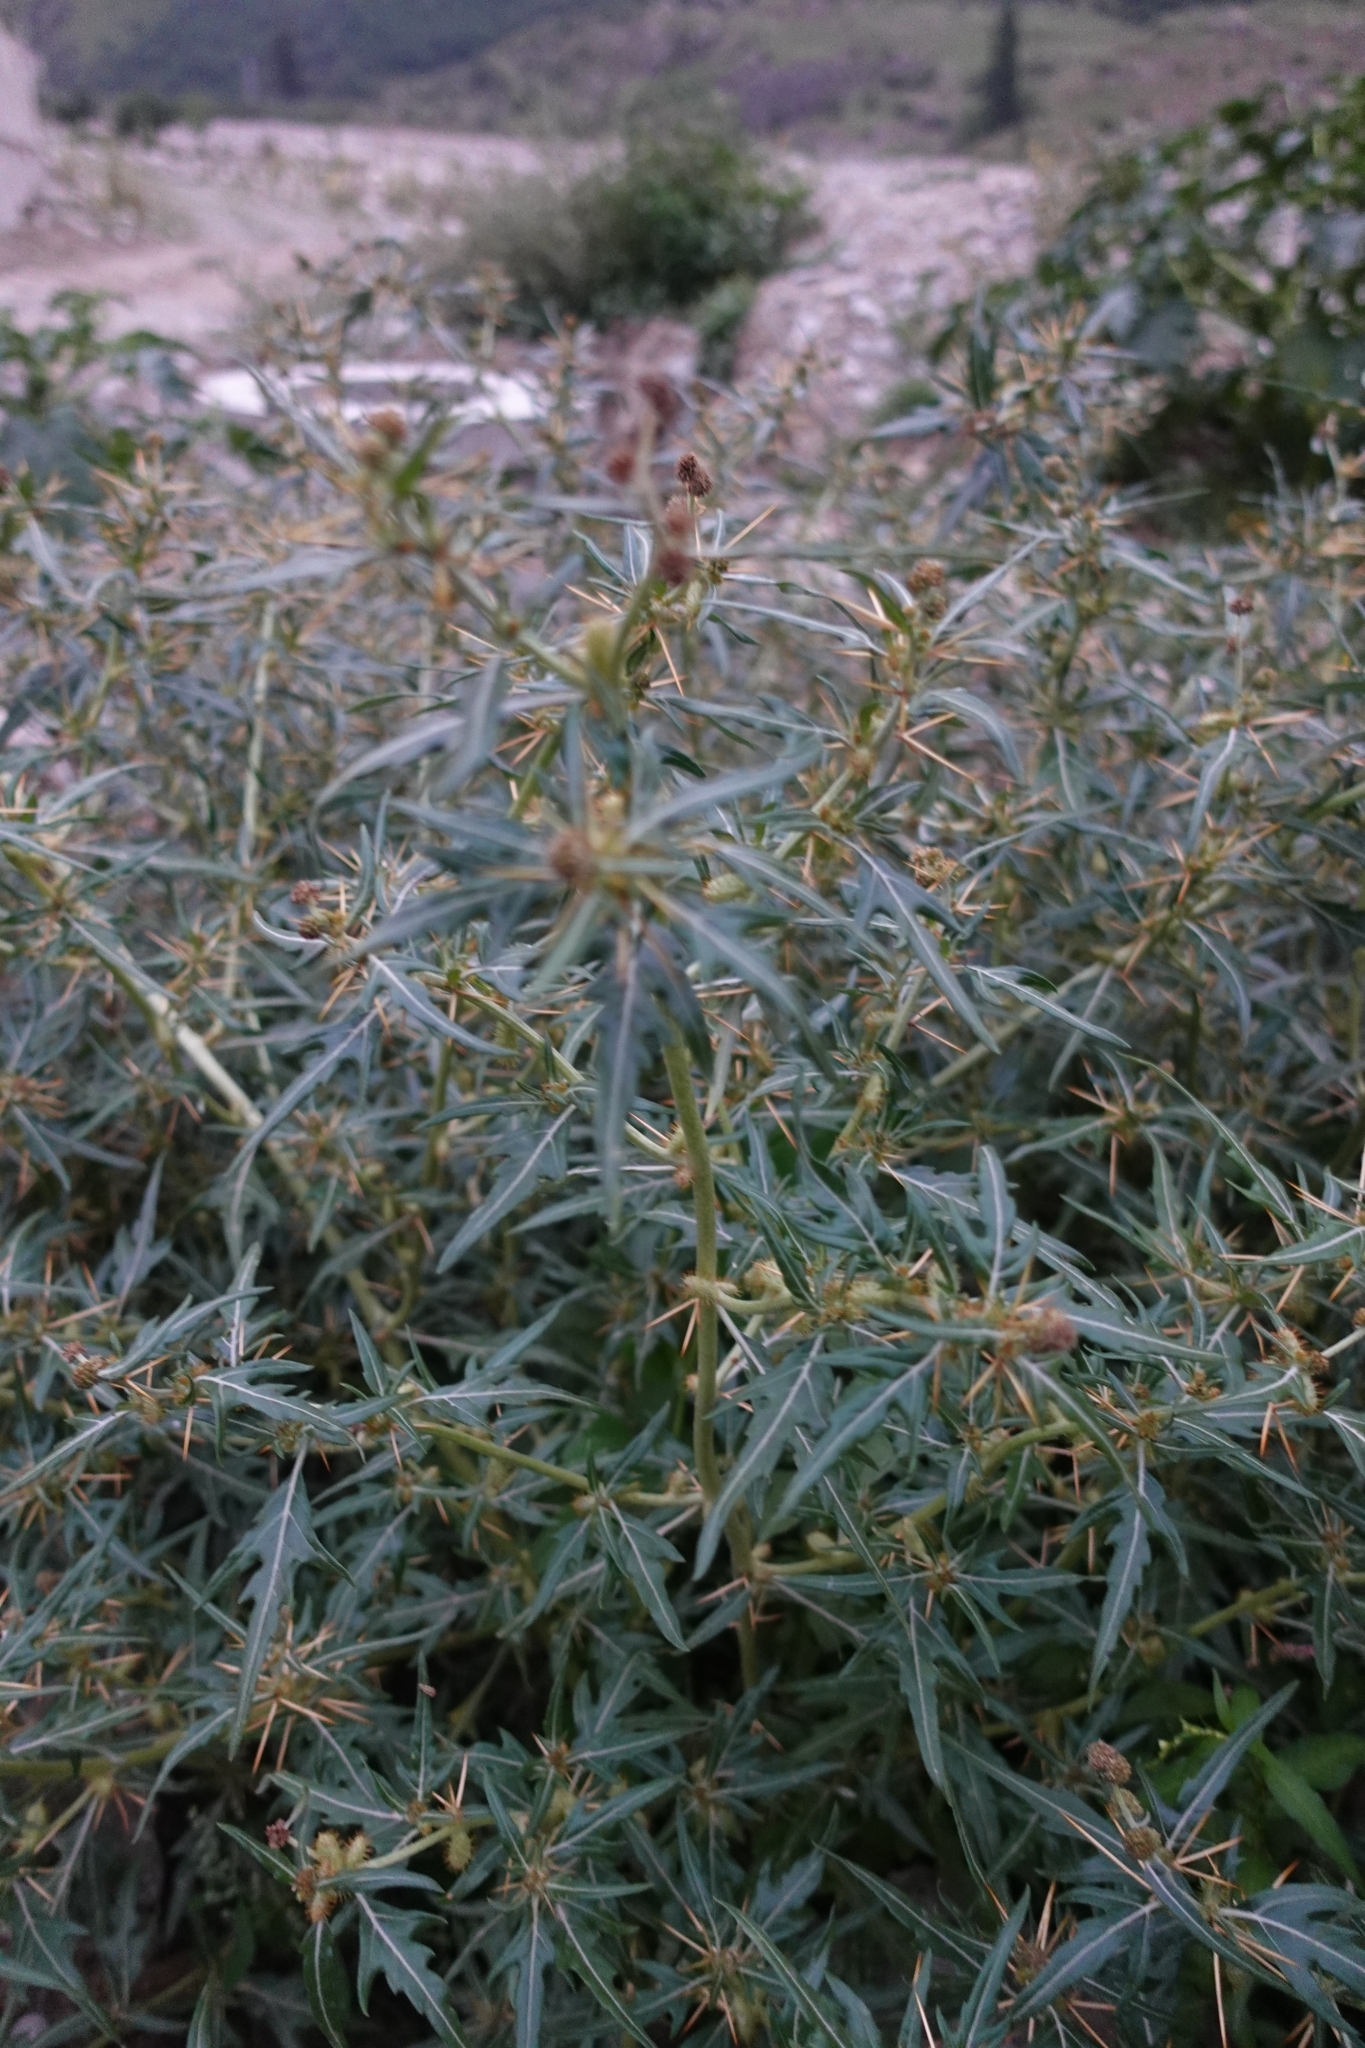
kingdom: Plantae
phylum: Tracheophyta
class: Magnoliopsida
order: Asterales
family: Asteraceae
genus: Xanthium
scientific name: Xanthium spinosum
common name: Spiny cocklebur
